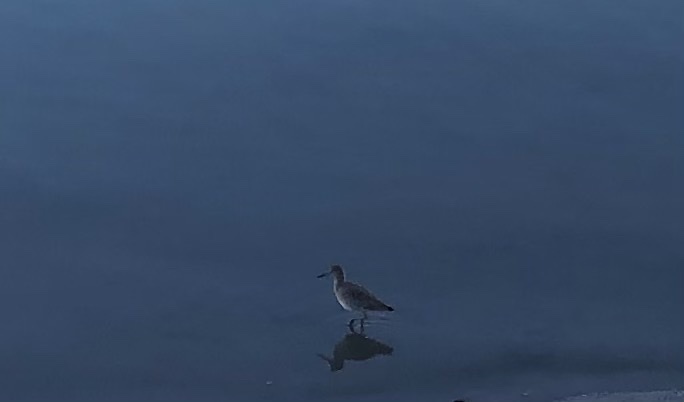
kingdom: Animalia
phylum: Chordata
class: Aves
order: Charadriiformes
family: Scolopacidae
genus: Tringa
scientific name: Tringa semipalmata
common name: Willet
